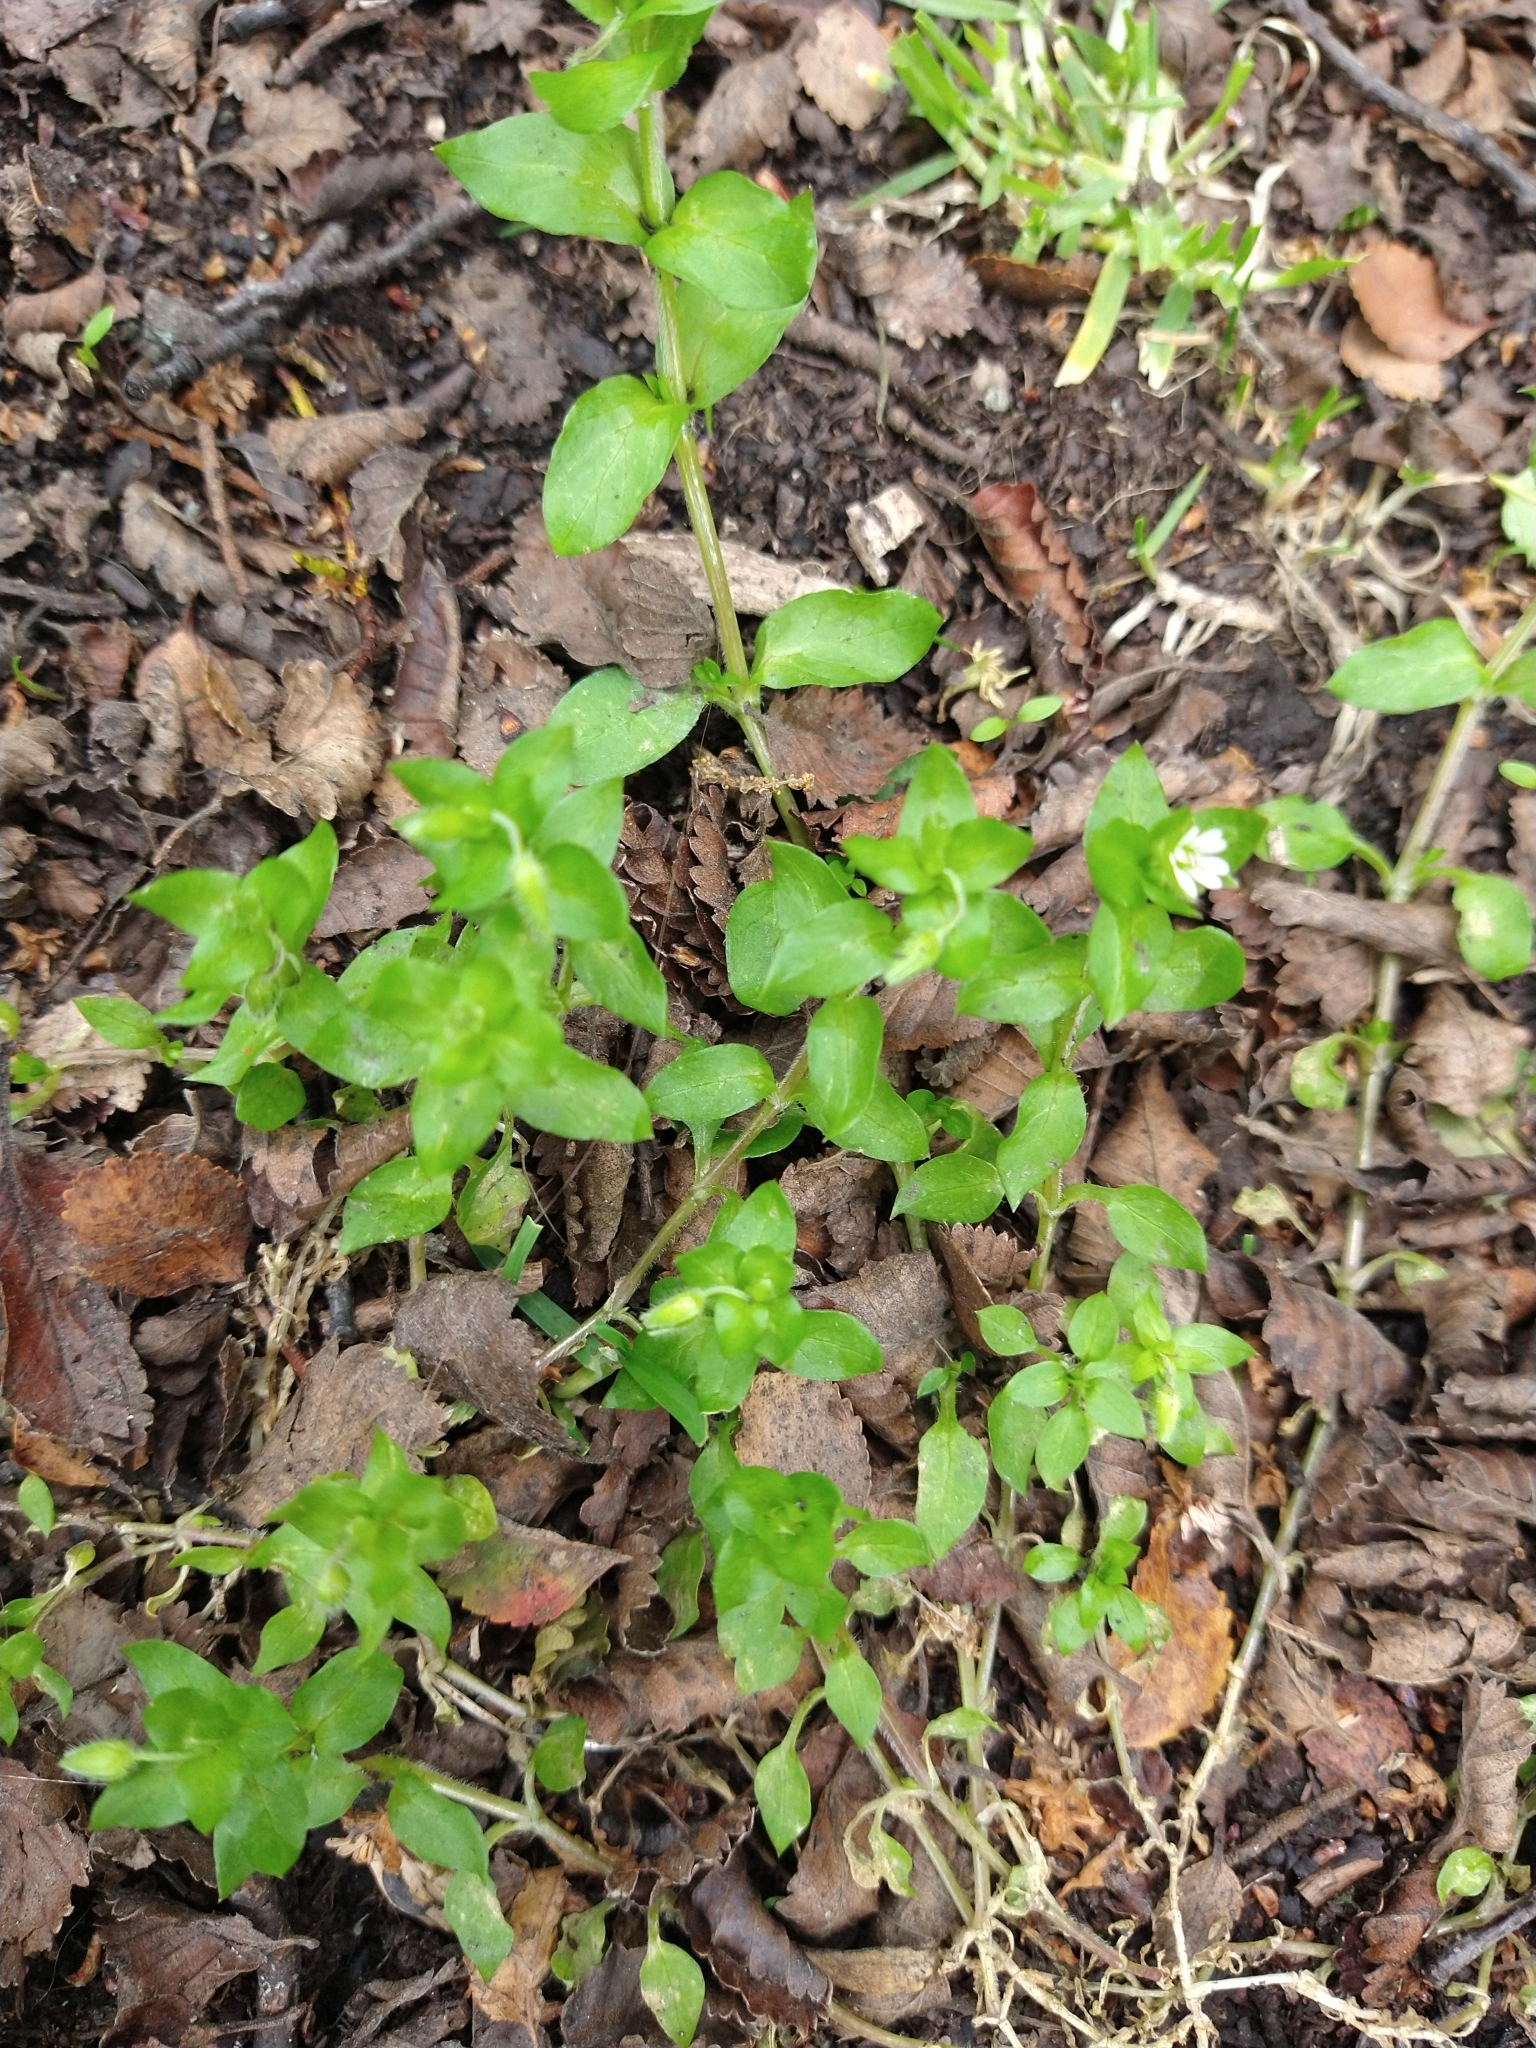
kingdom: Plantae
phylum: Tracheophyta
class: Magnoliopsida
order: Caryophyllales
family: Caryophyllaceae
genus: Stellaria
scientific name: Stellaria media
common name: Common chickweed
